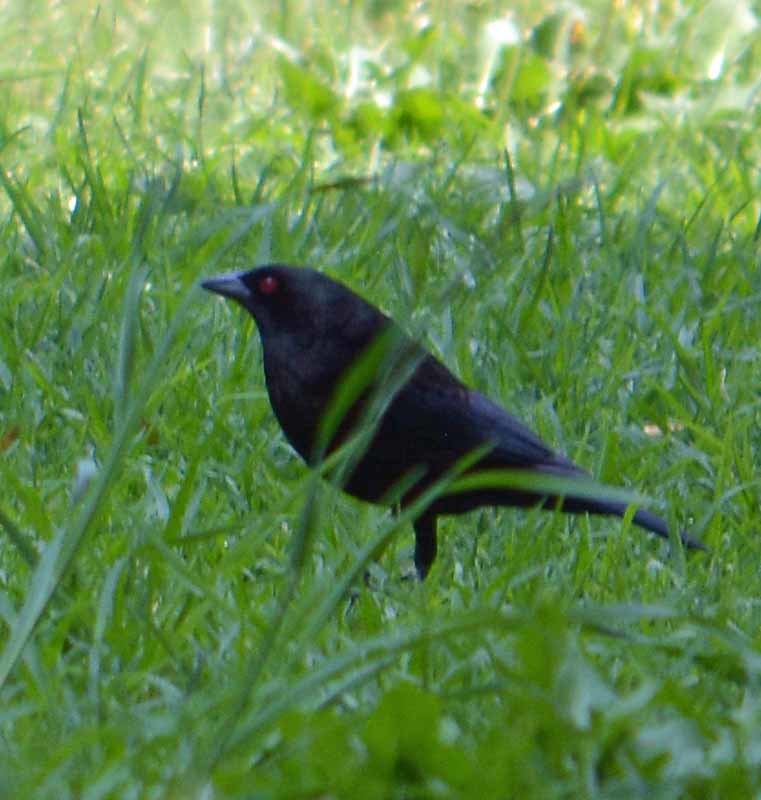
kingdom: Animalia
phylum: Chordata
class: Aves
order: Passeriformes
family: Icteridae
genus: Molothrus
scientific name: Molothrus aeneus
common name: Bronzed cowbird
